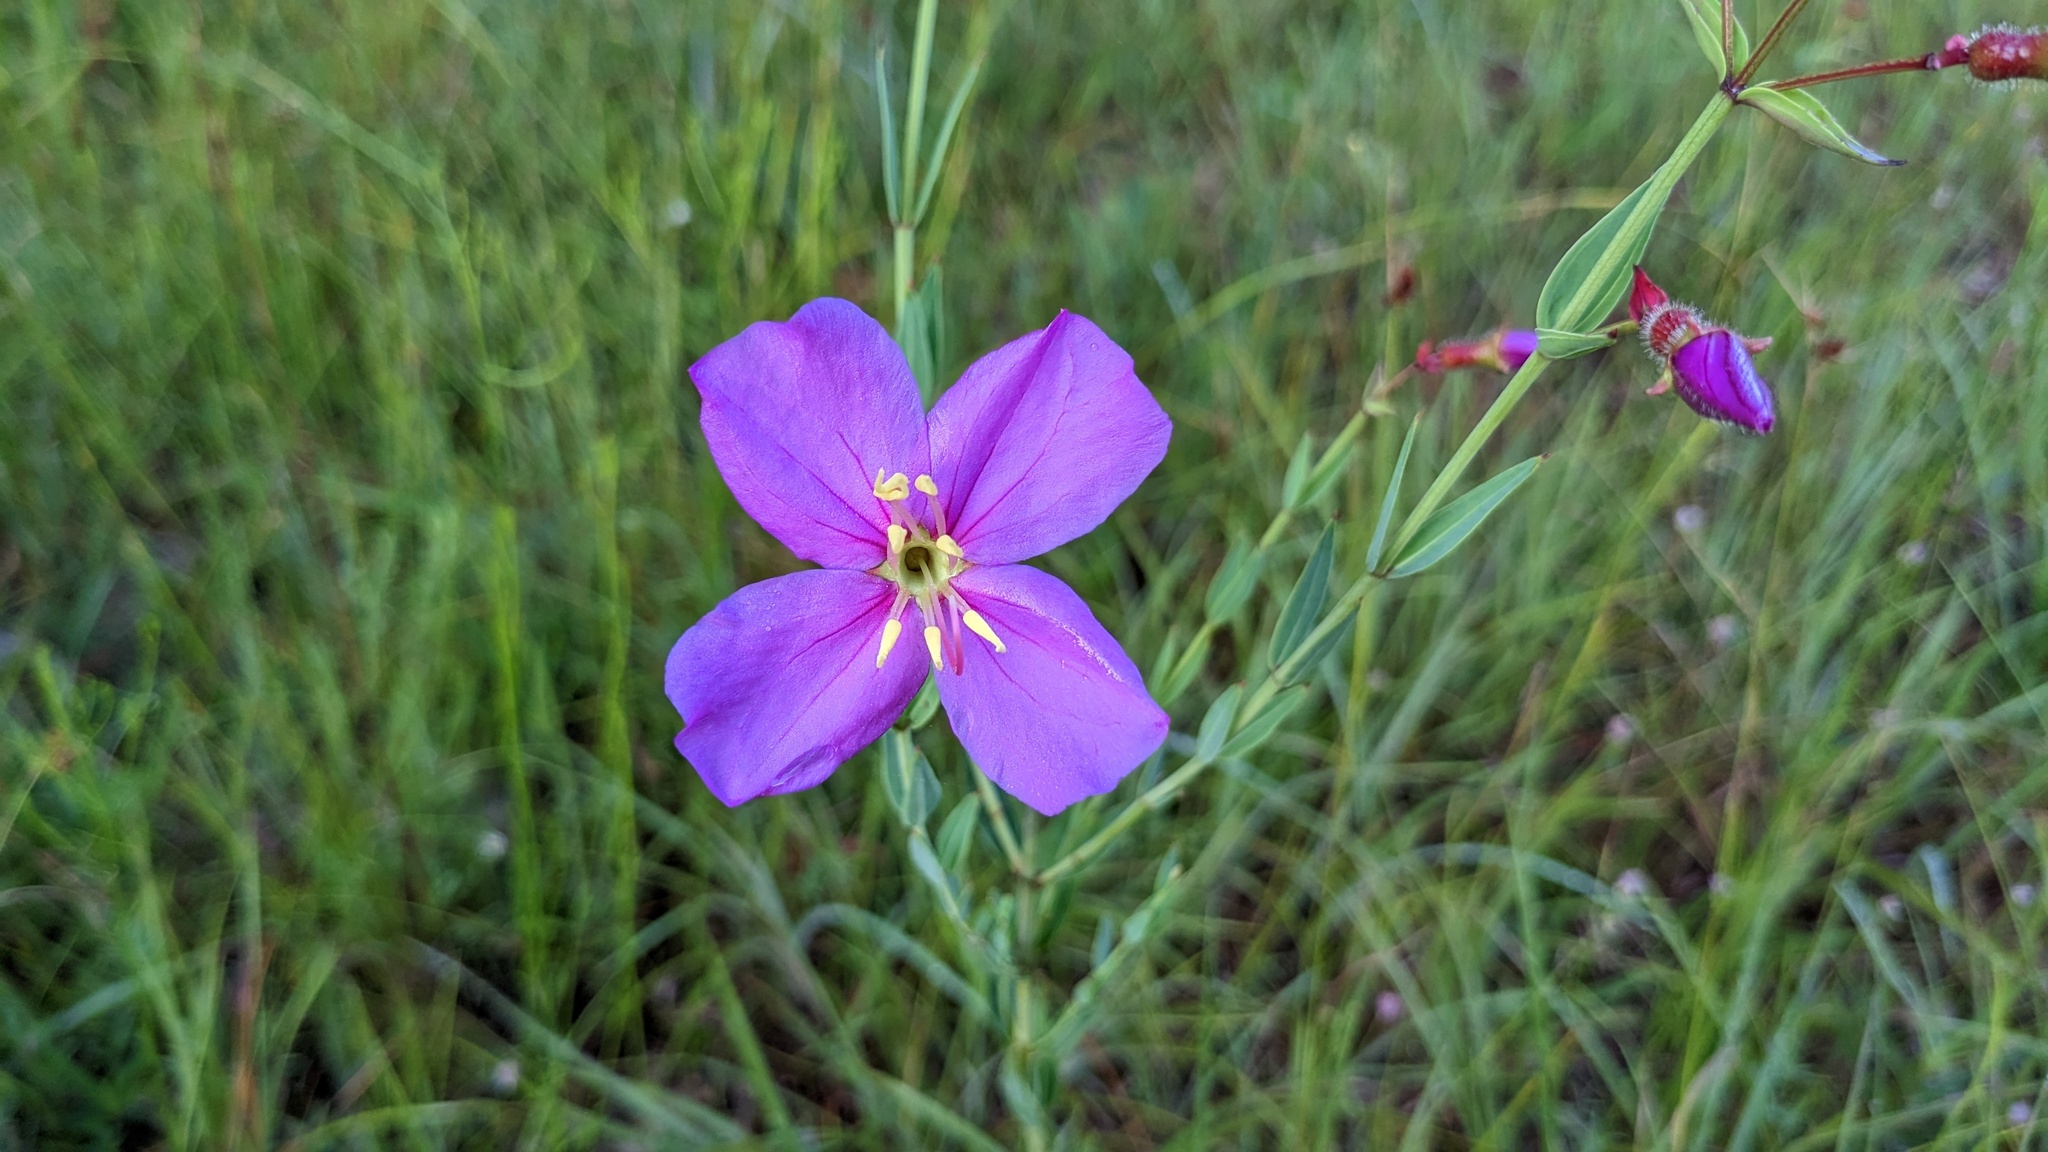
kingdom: Plantae
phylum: Tracheophyta
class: Magnoliopsida
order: Myrtales
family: Melastomataceae
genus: Rhexia
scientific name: Rhexia alifanus
